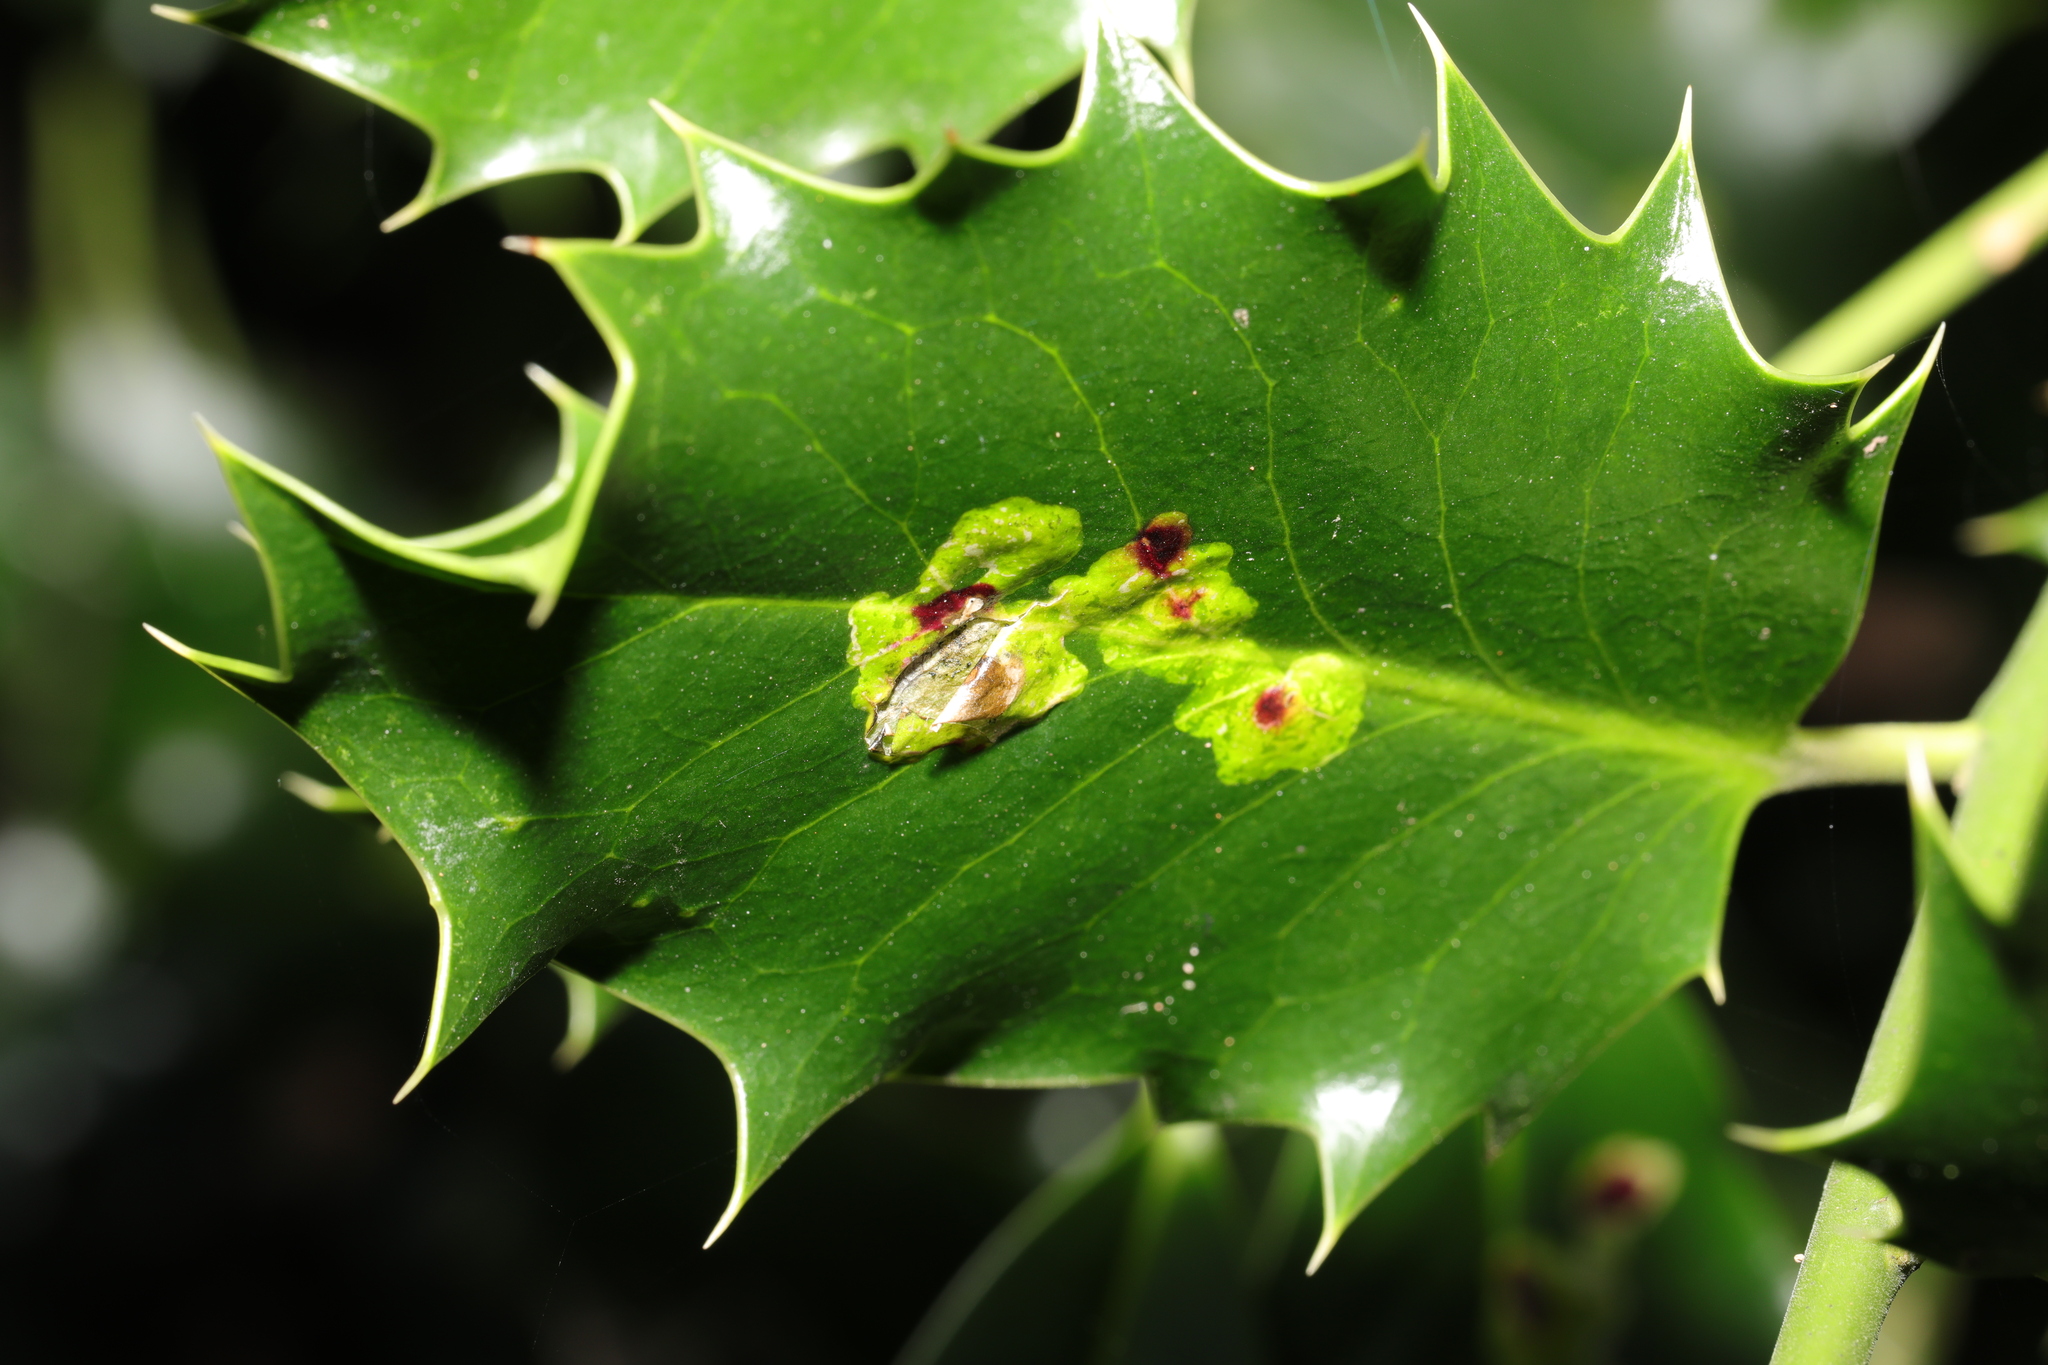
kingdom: Animalia
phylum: Arthropoda
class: Insecta
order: Diptera
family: Agromyzidae
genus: Phytomyza
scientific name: Phytomyza ilicis
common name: Holly leafminer
